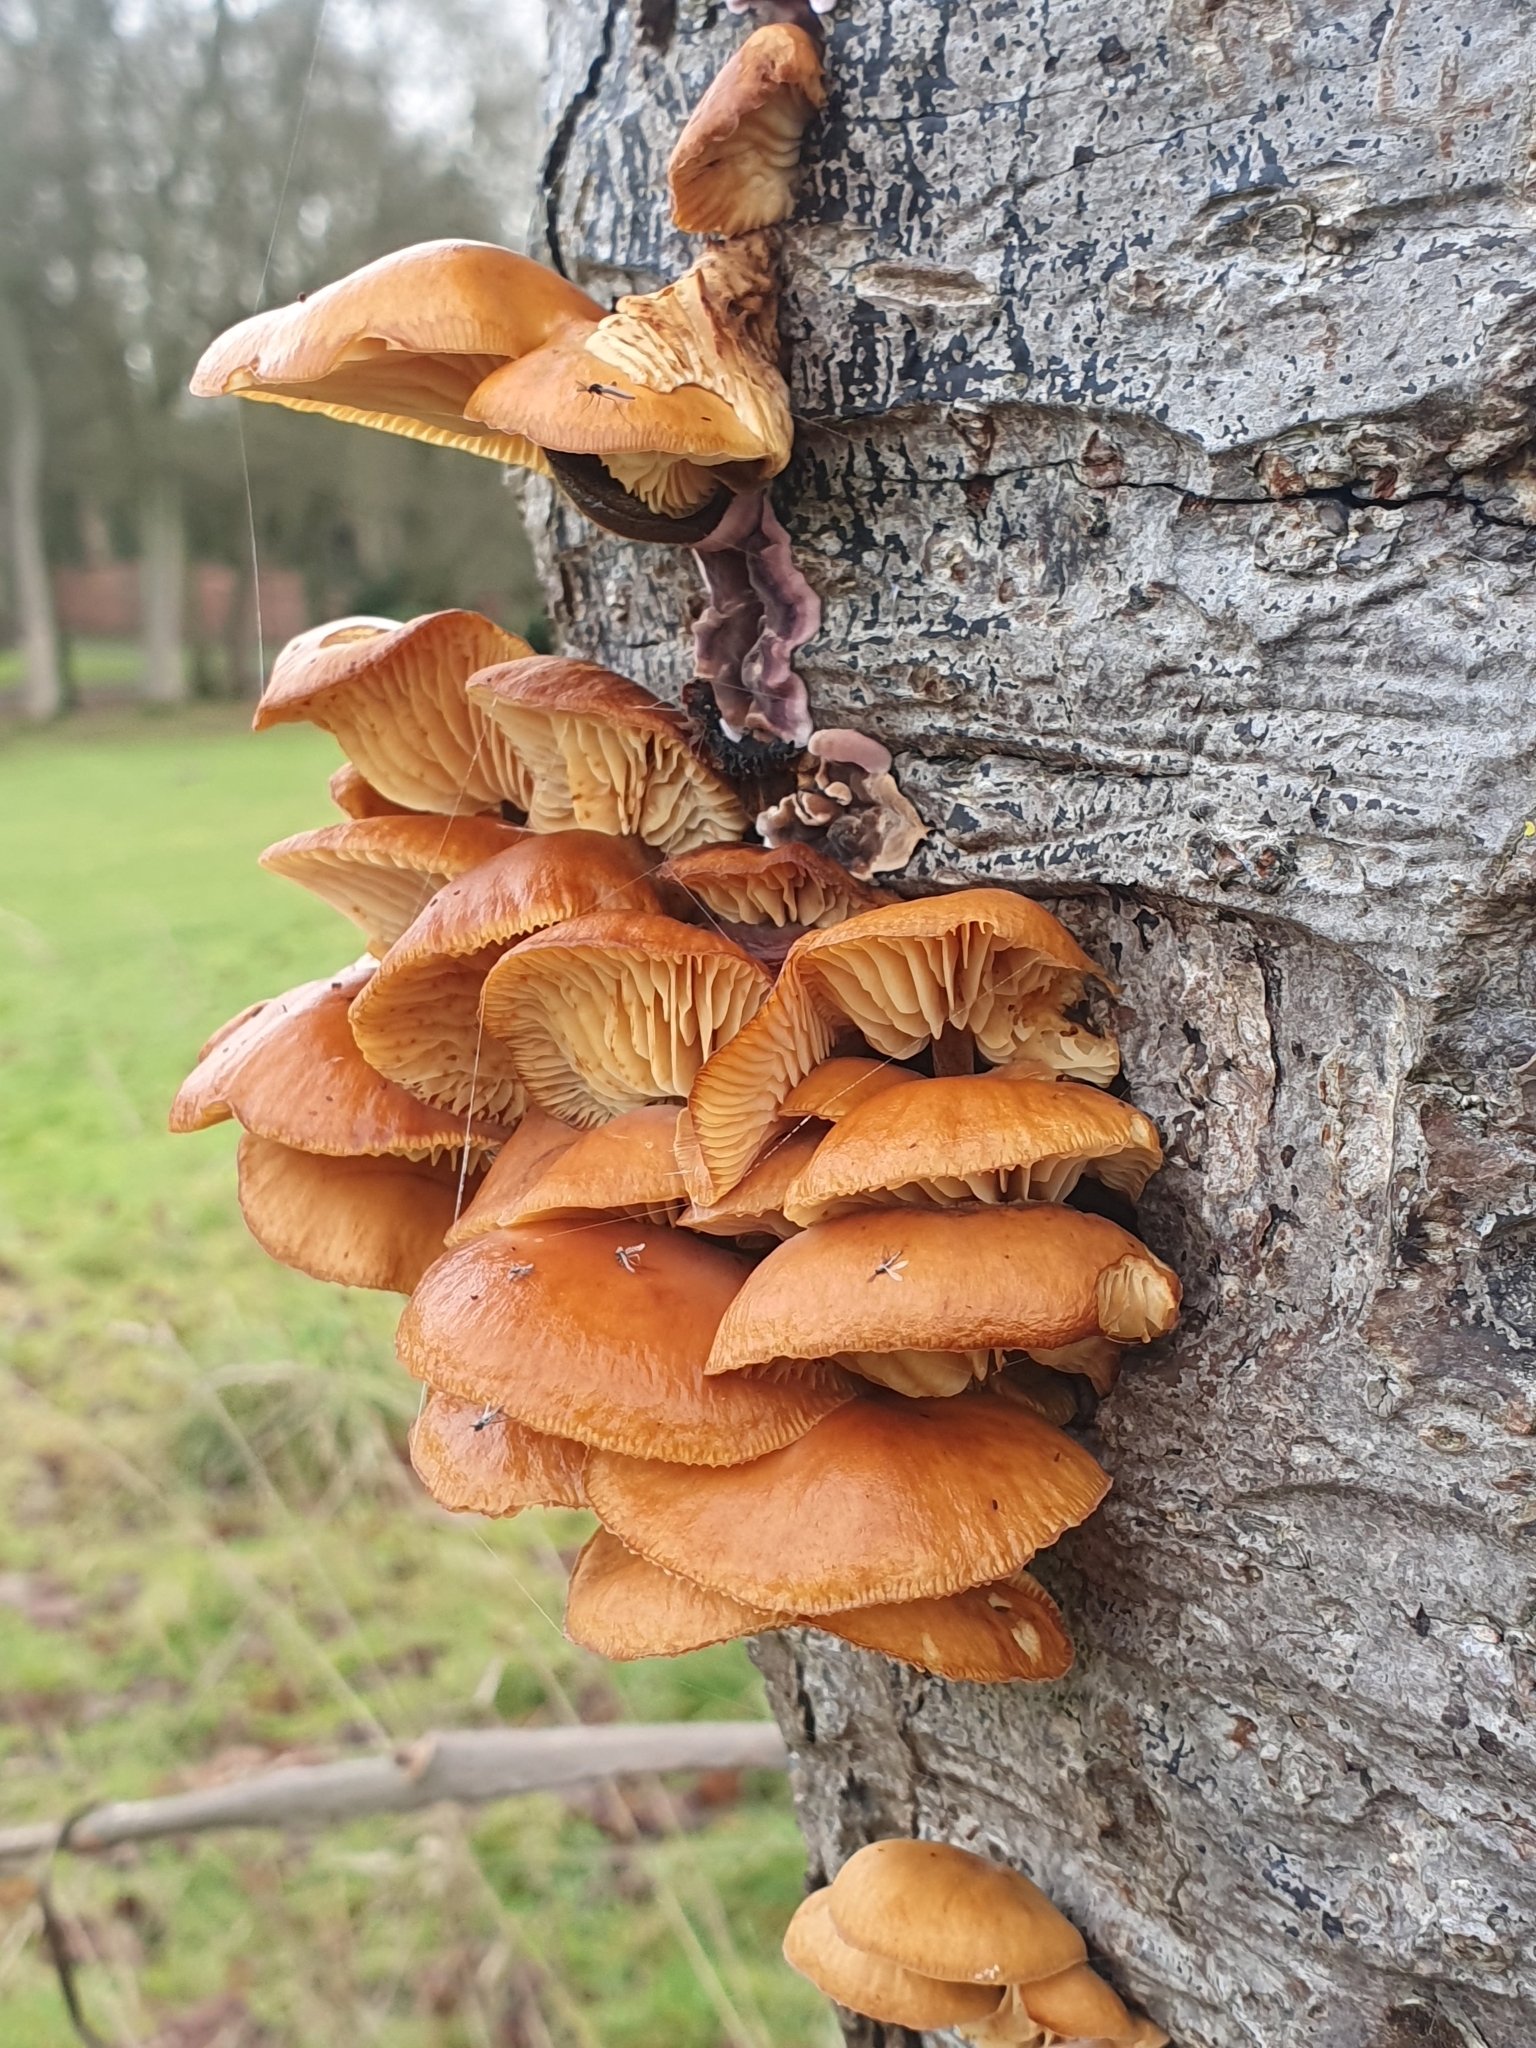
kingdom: Fungi
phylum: Basidiomycota
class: Agaricomycetes
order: Agaricales
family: Physalacriaceae
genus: Flammulina
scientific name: Flammulina
